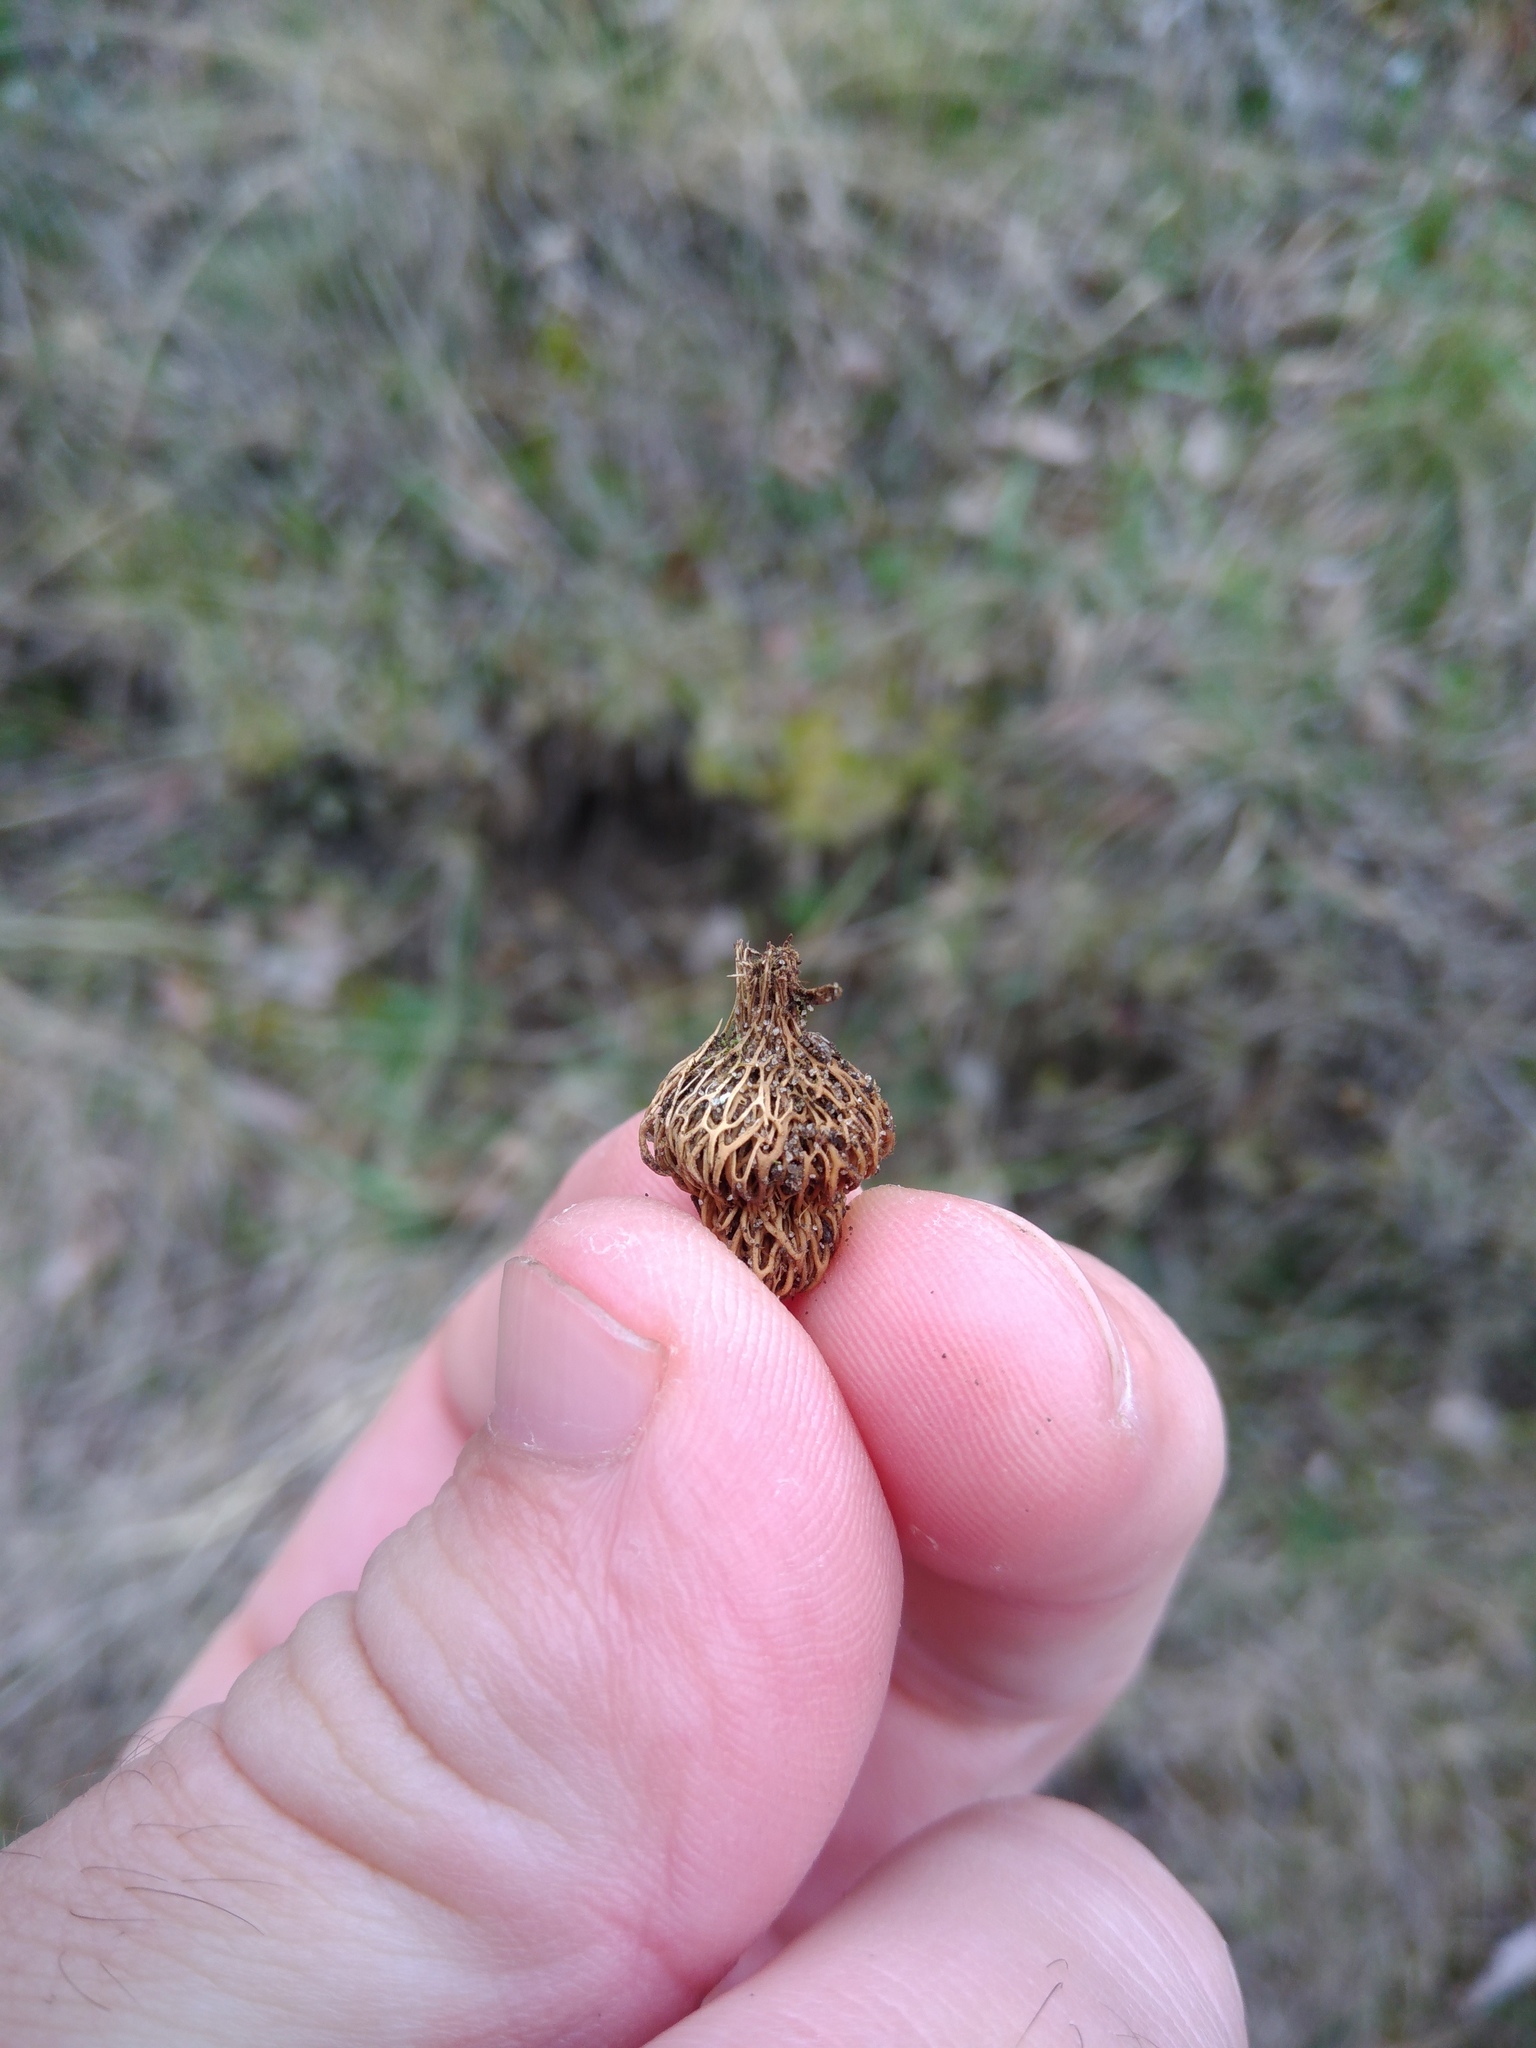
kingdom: Plantae
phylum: Tracheophyta
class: Liliopsida
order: Asparagales
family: Iridaceae
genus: Crocus
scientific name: Crocus reticulatus
